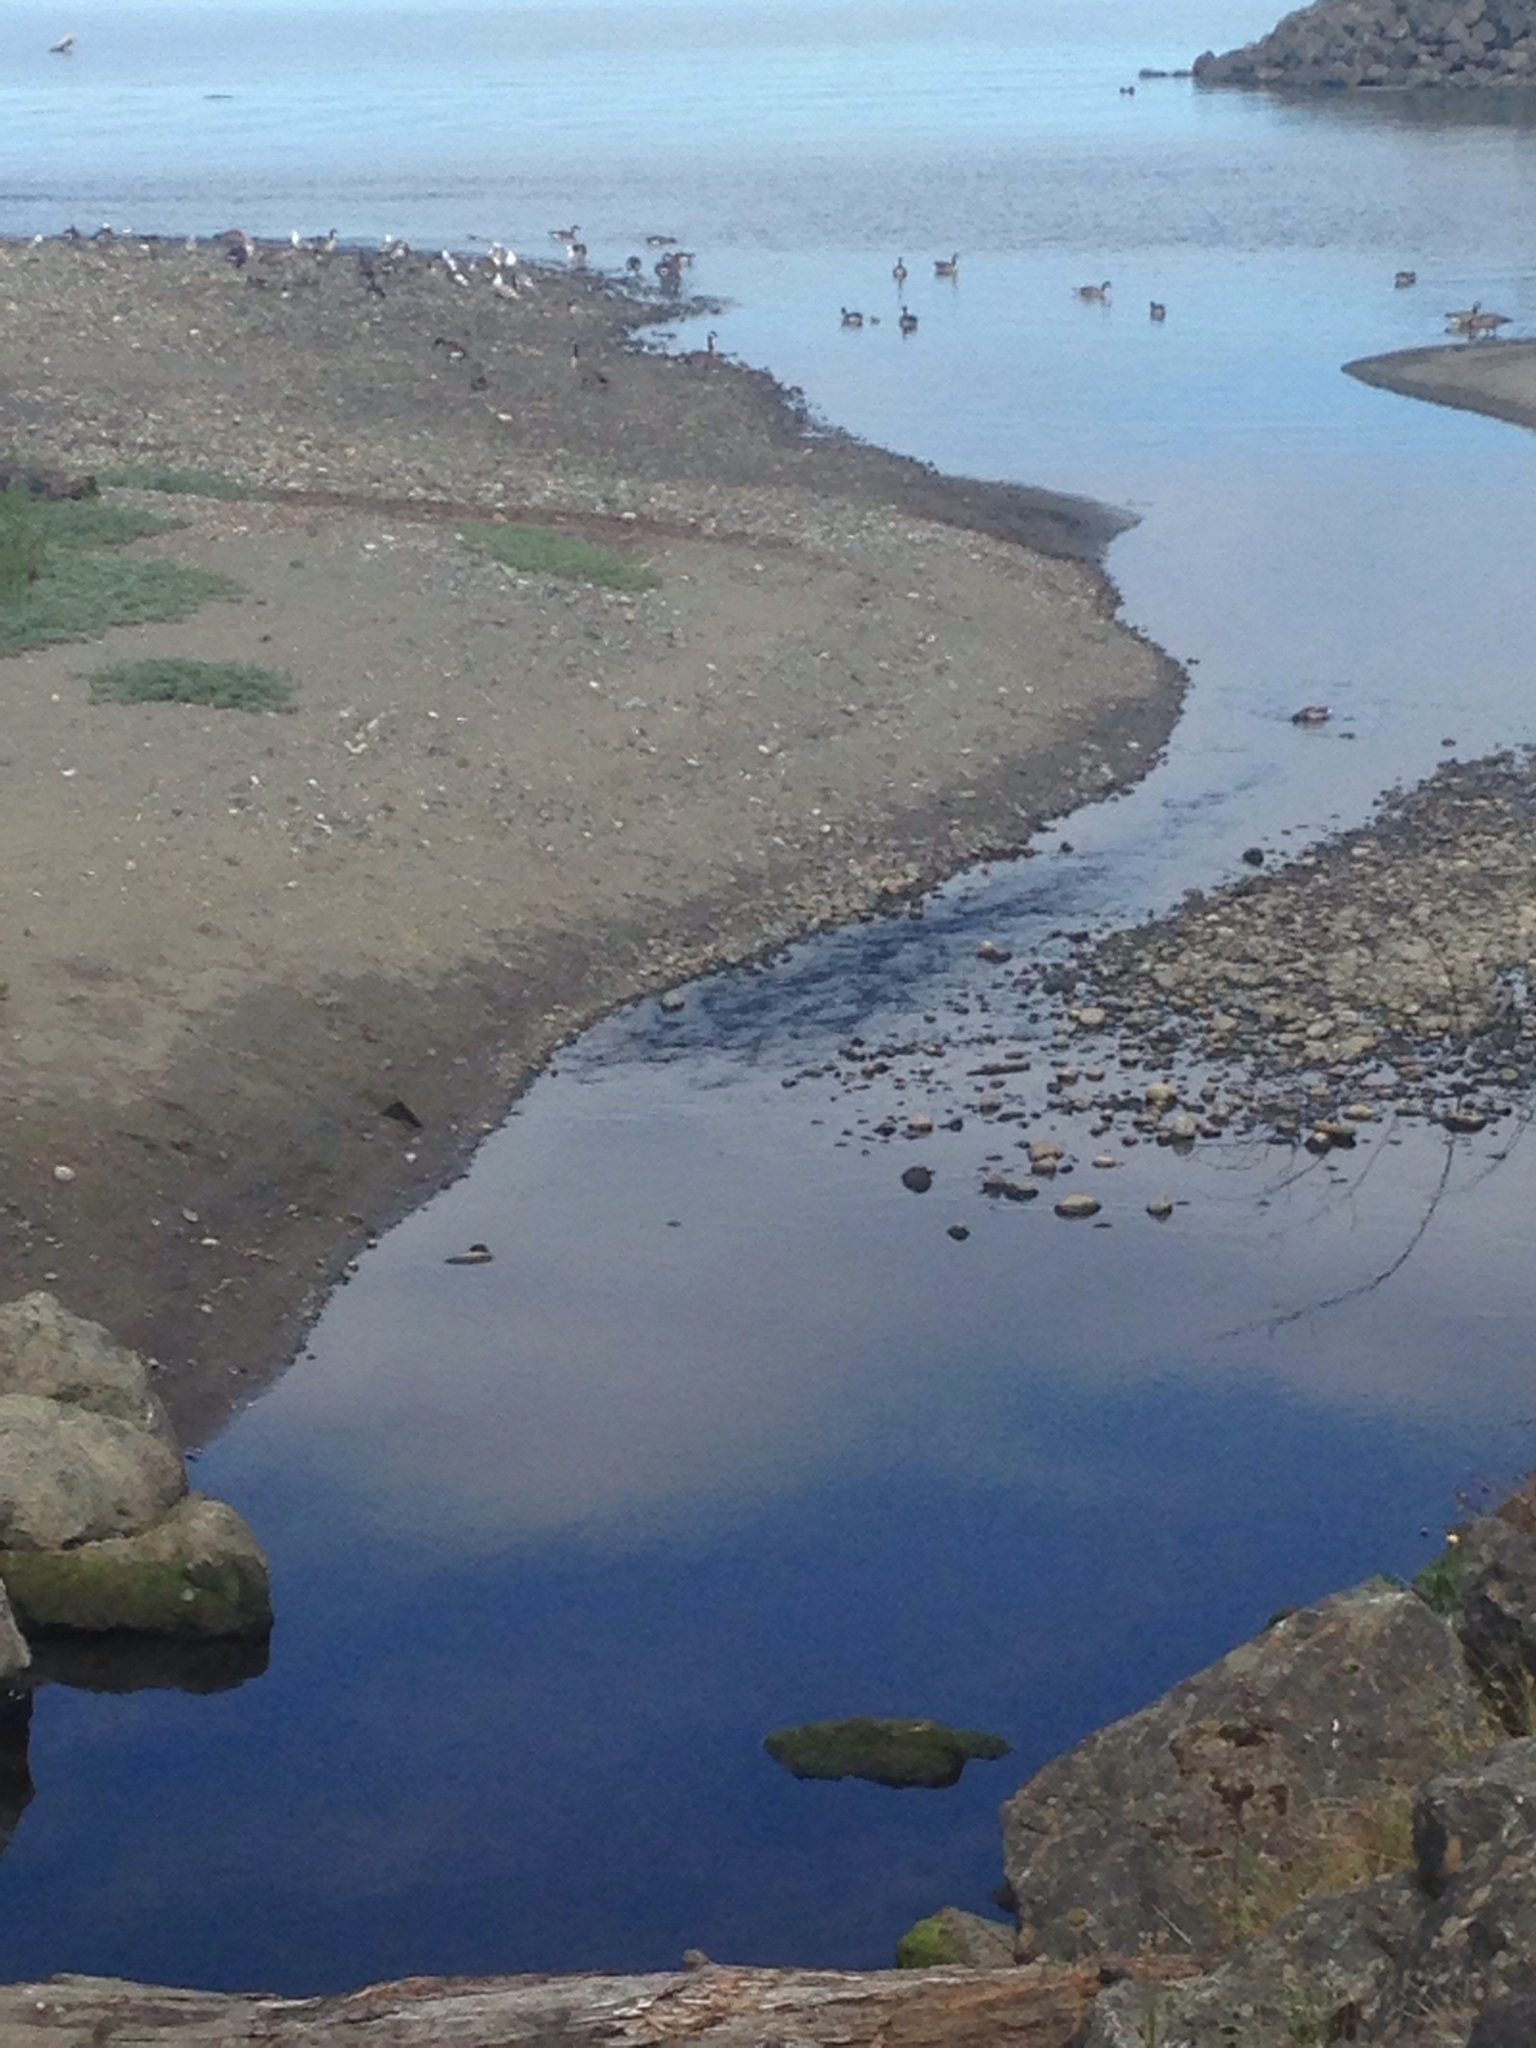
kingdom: Animalia
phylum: Chordata
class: Aves
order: Anseriformes
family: Anatidae
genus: Branta
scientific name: Branta canadensis
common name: Canada goose
